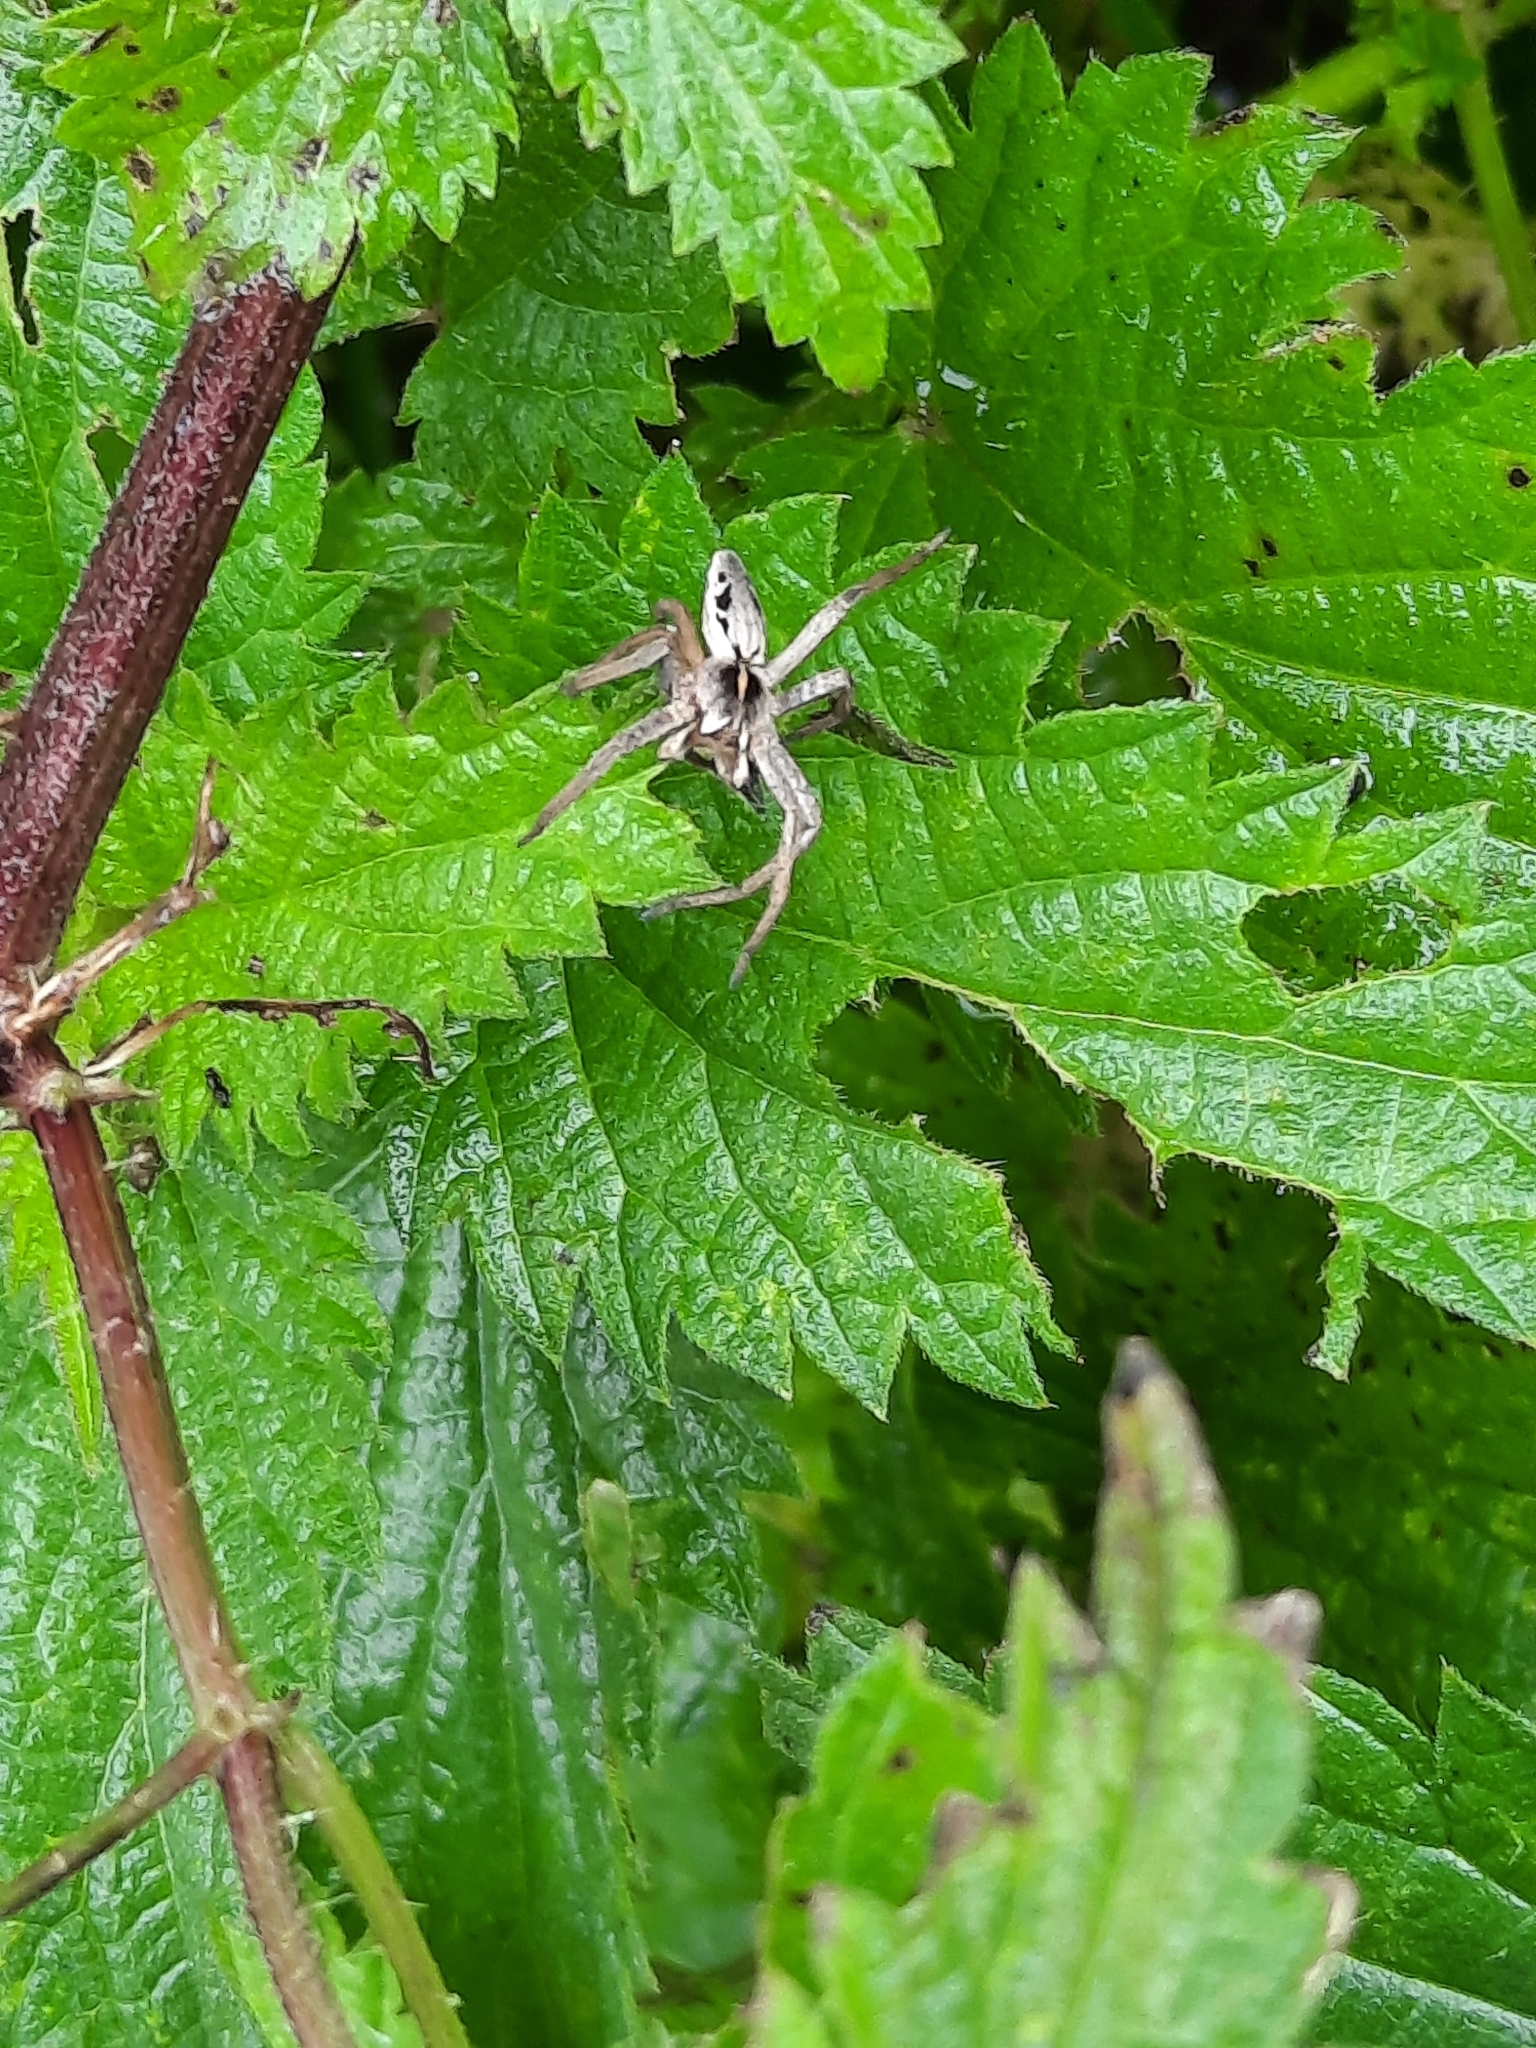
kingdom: Animalia
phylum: Arthropoda
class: Arachnida
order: Araneae
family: Pisauridae
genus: Pisaura
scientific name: Pisaura mirabilis
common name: Tent spider
